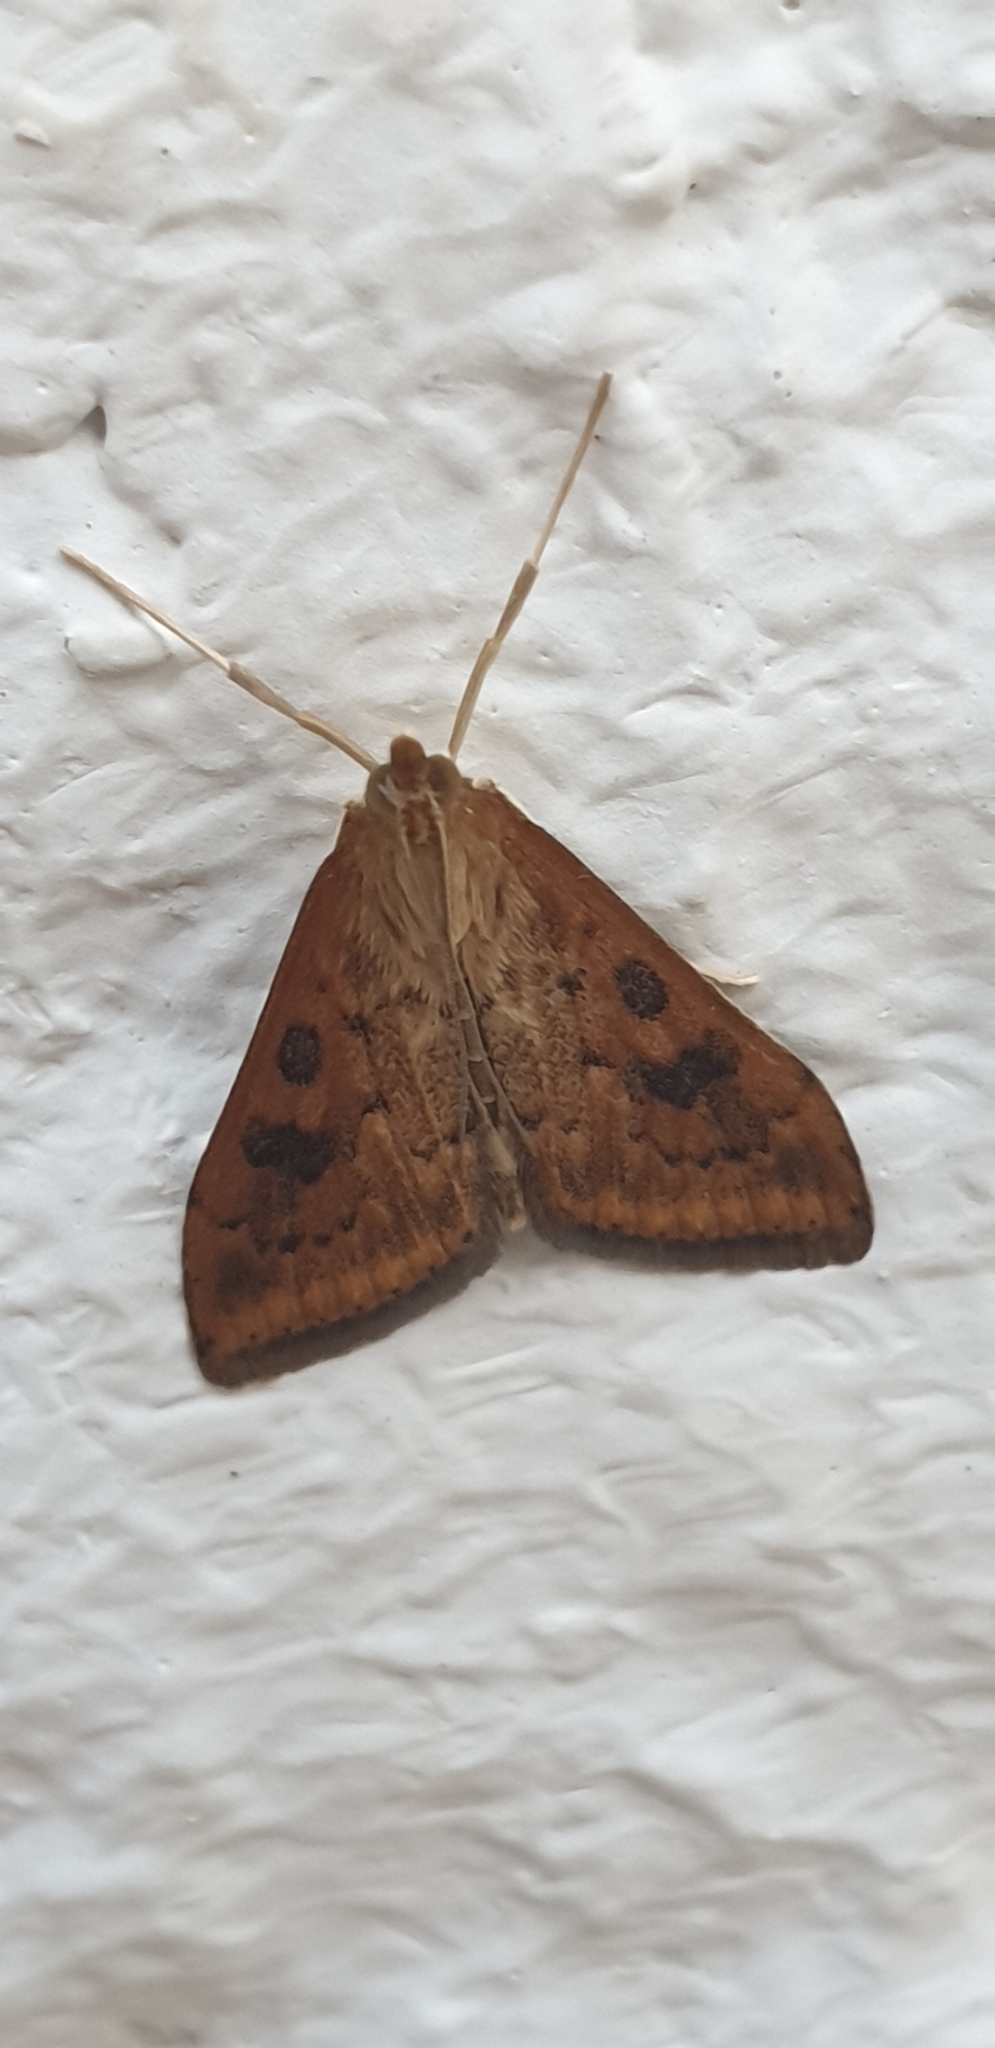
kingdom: Animalia
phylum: Arthropoda
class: Insecta
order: Lepidoptera
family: Crambidae
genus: Udea
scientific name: Udea ferrugalis
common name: Rusty dot
